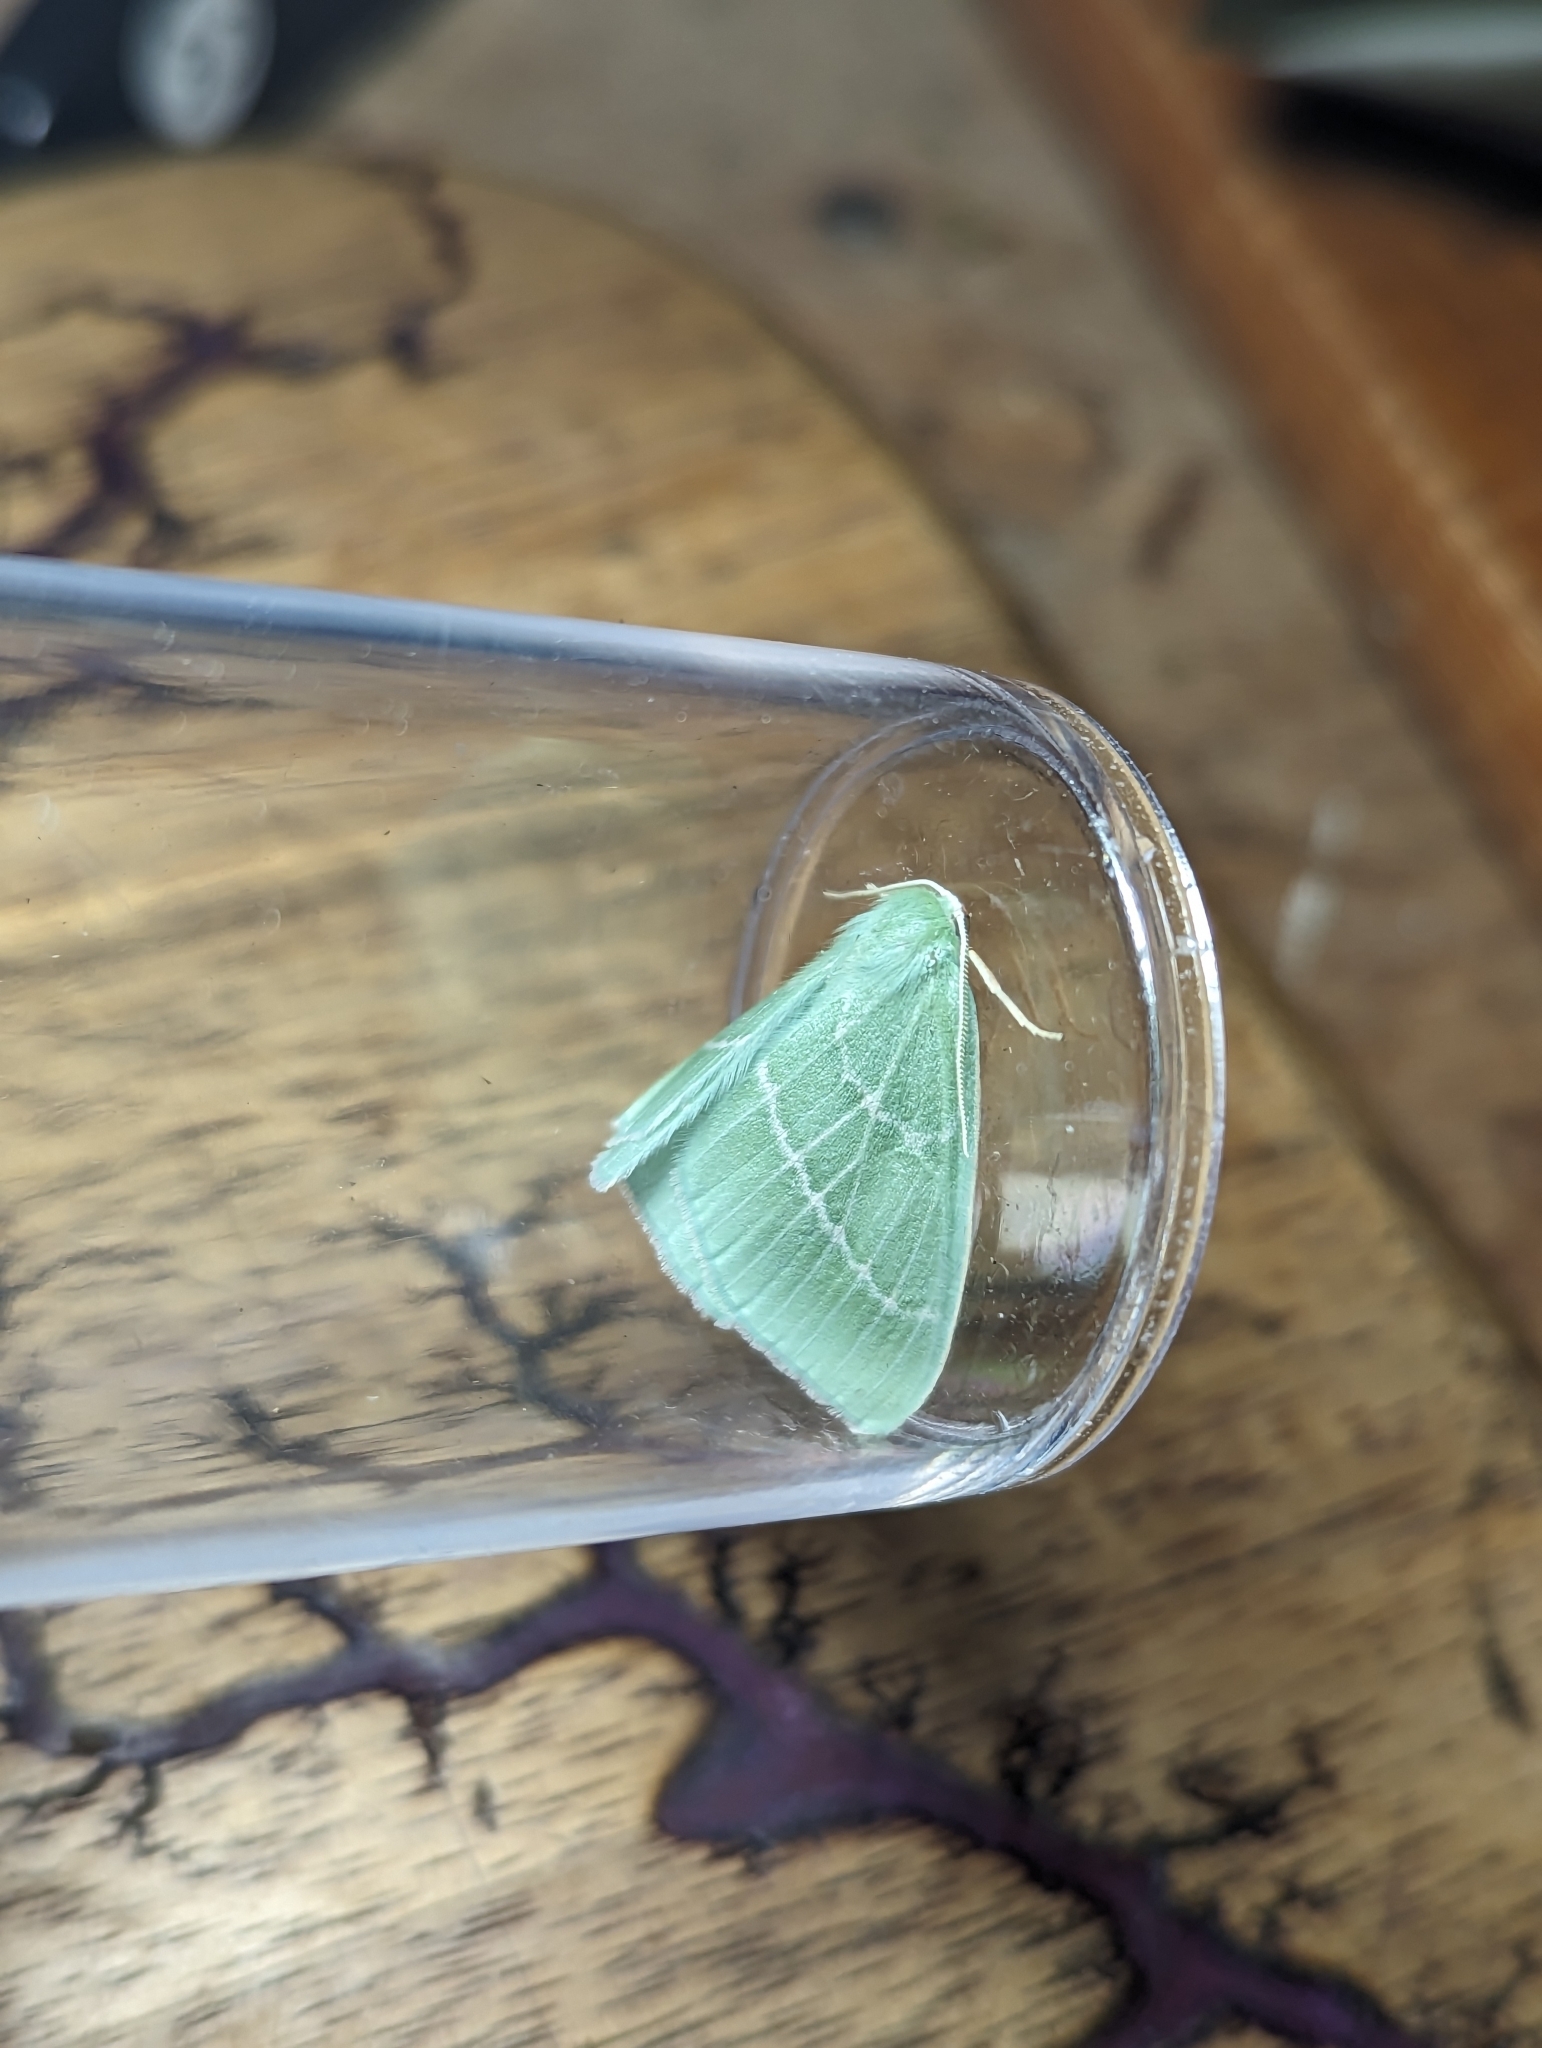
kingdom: Animalia
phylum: Arthropoda
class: Insecta
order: Lepidoptera
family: Geometridae
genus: Hemistola
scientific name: Hemistola chrysoprasaria
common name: Small emerald
